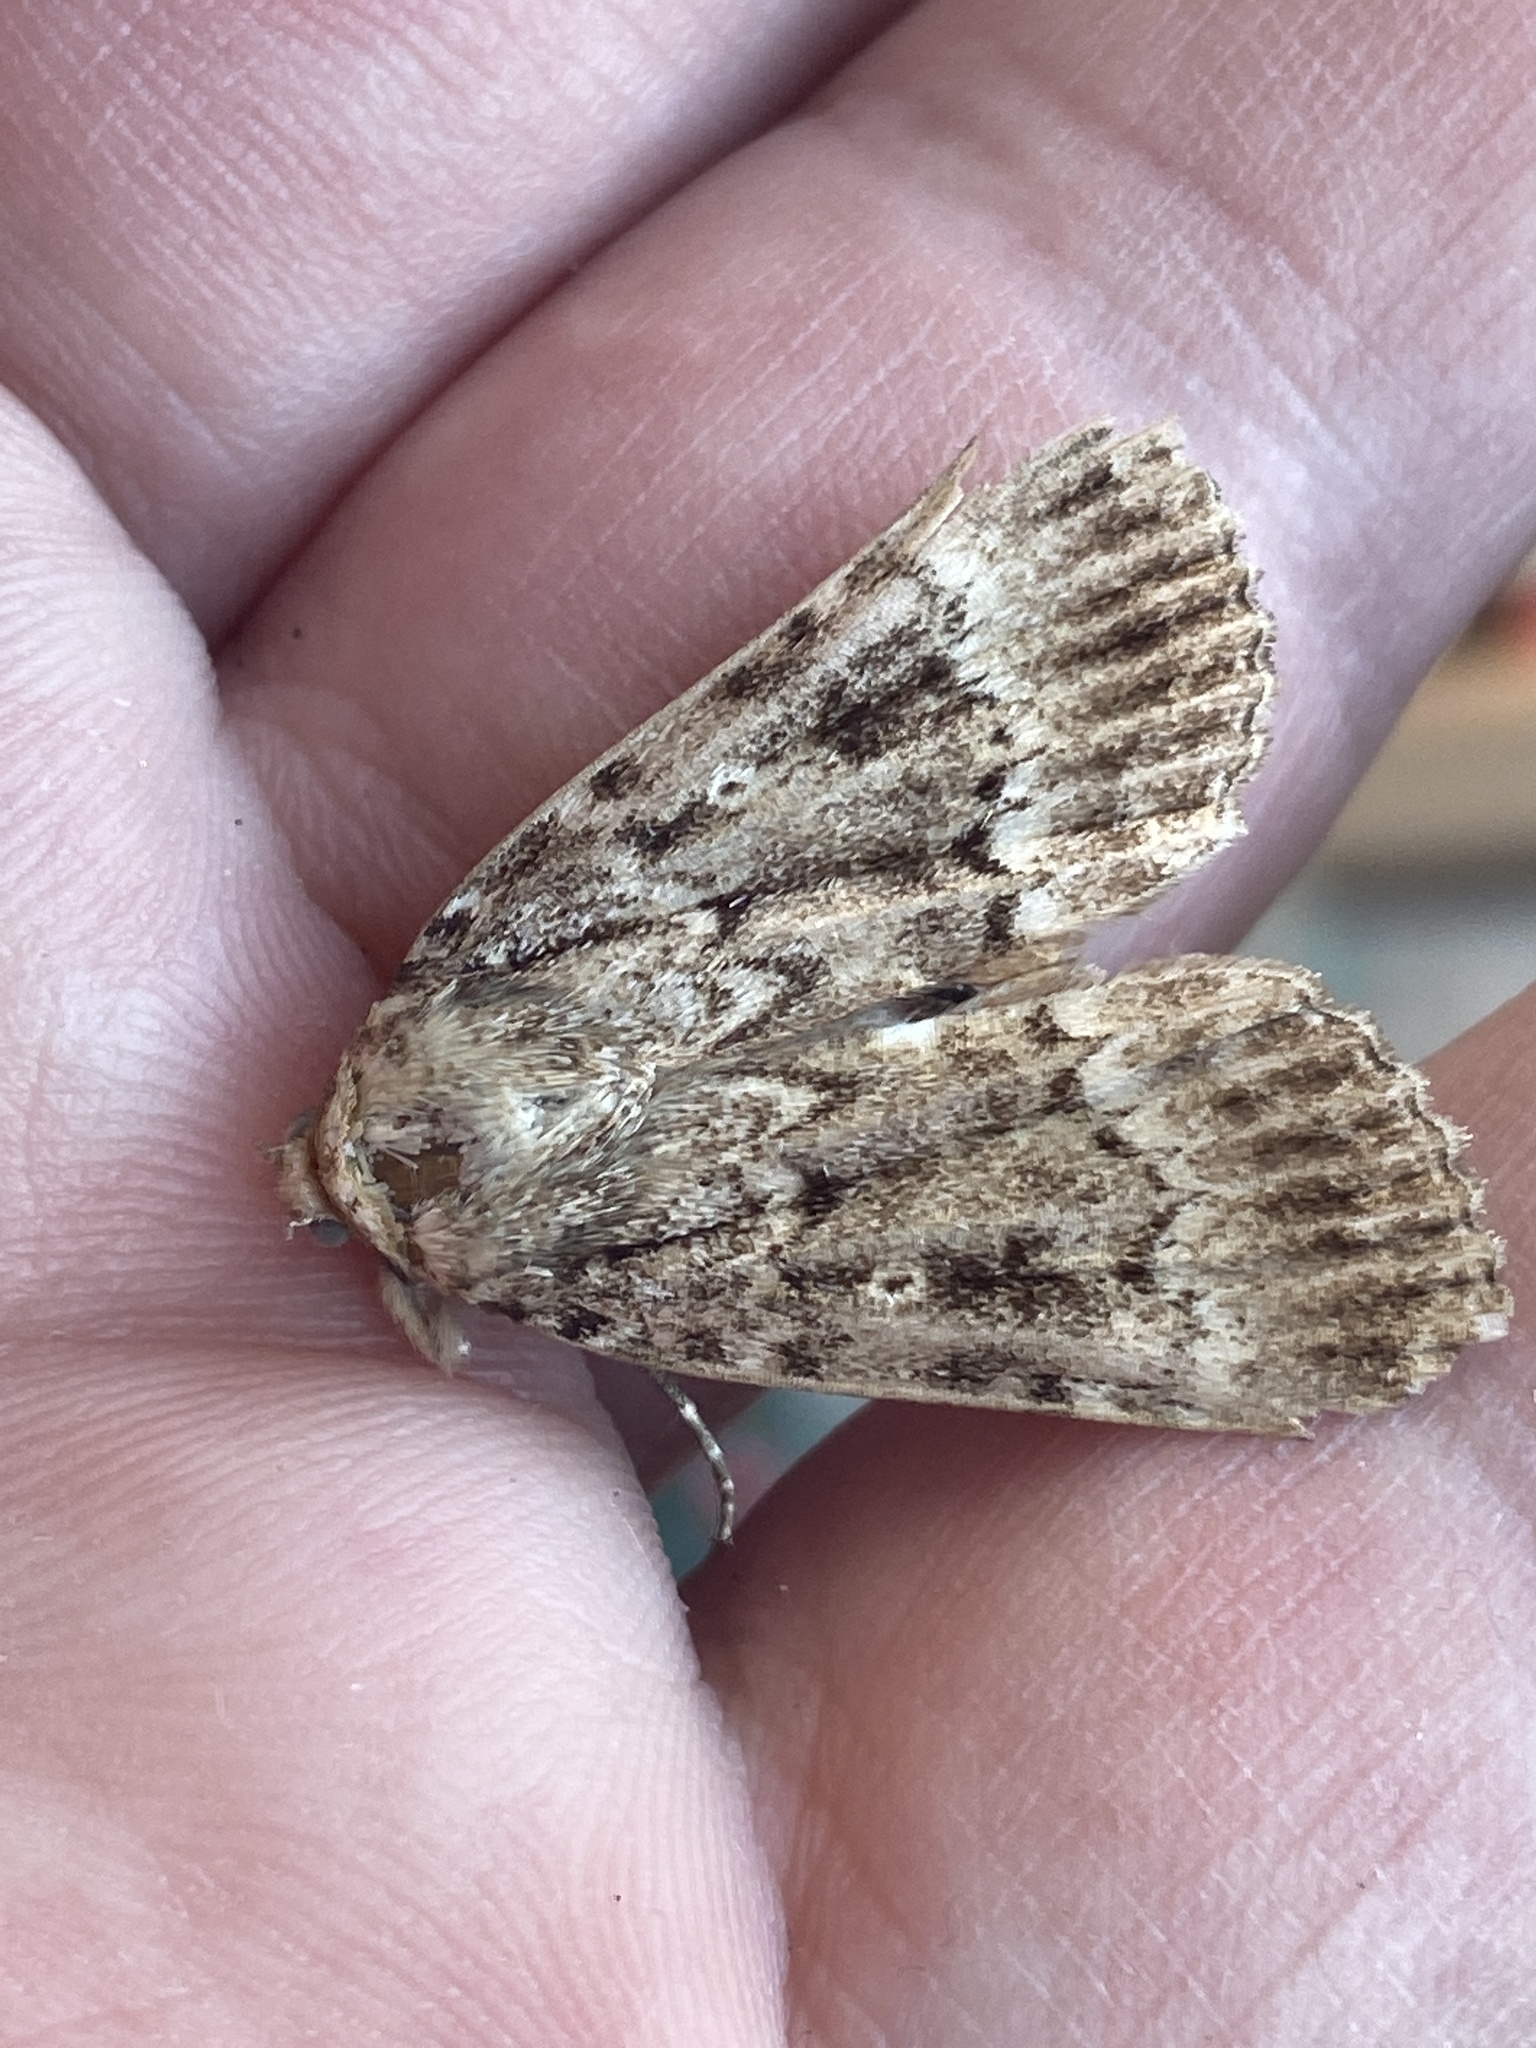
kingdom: Animalia
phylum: Arthropoda
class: Insecta
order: Lepidoptera
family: Noctuidae
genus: Amphipyra
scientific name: Amphipyra berbera
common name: Svensson's copper underwing
